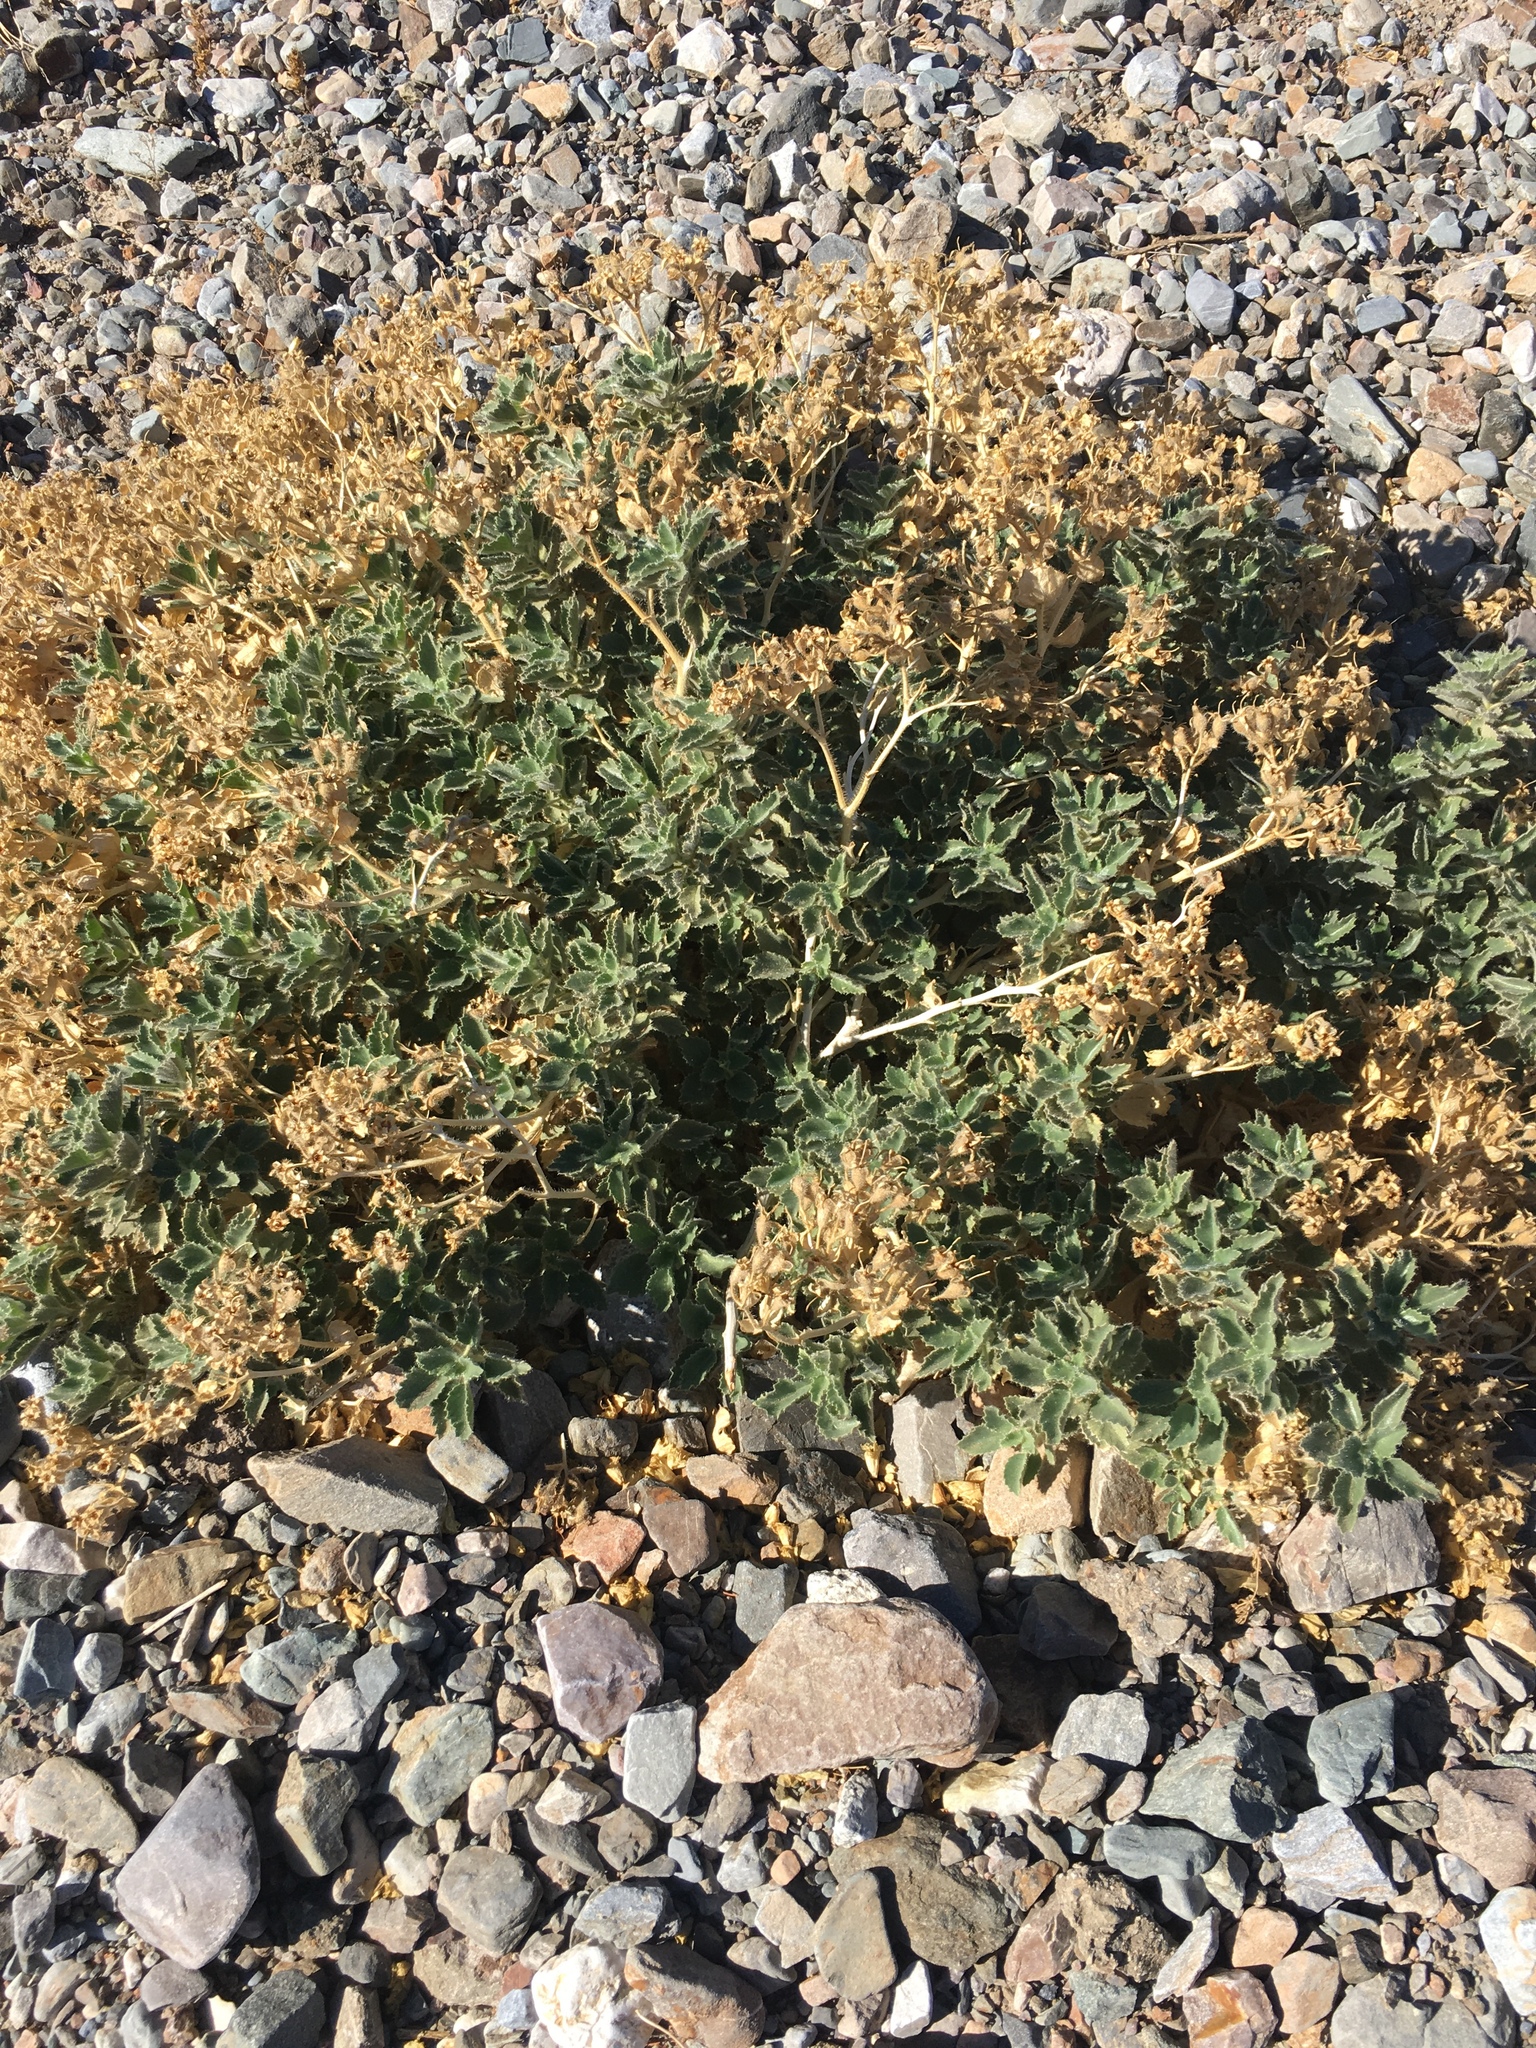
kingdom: Plantae
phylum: Tracheophyta
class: Magnoliopsida
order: Cornales
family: Loasaceae
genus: Eucnide
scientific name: Eucnide urens
